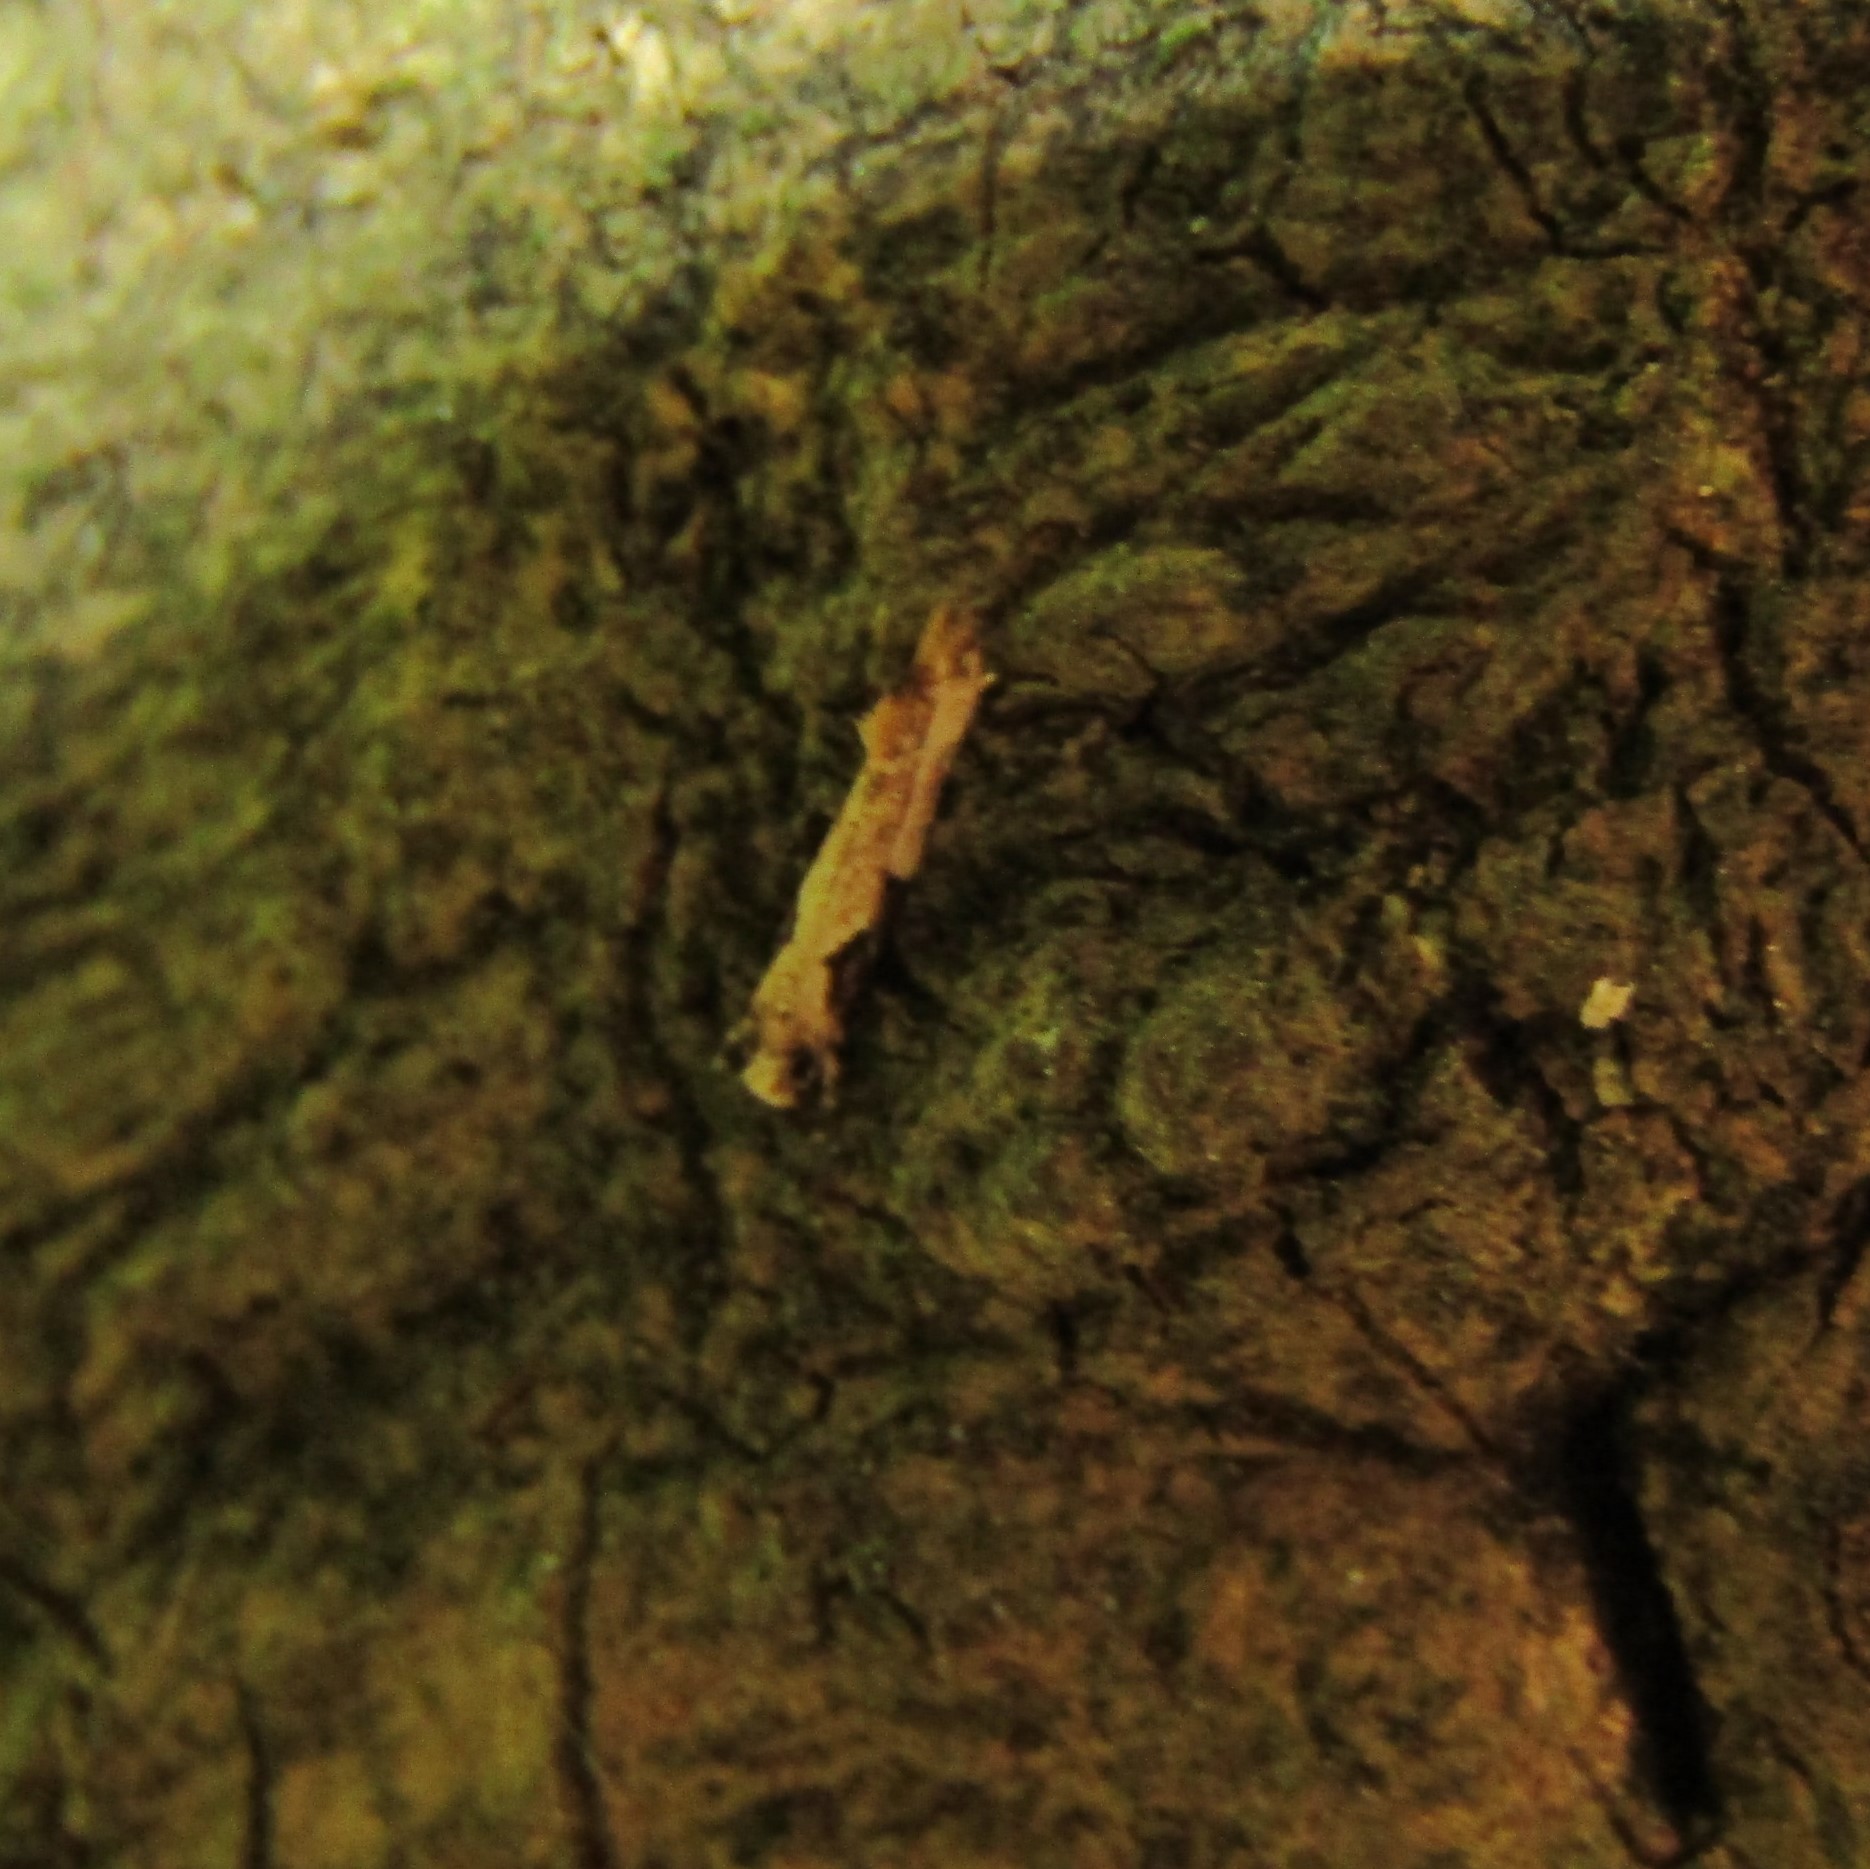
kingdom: Animalia
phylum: Arthropoda
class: Insecta
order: Lepidoptera
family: Tineidae
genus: Crypsitricha
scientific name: Crypsitricha pharotoma
